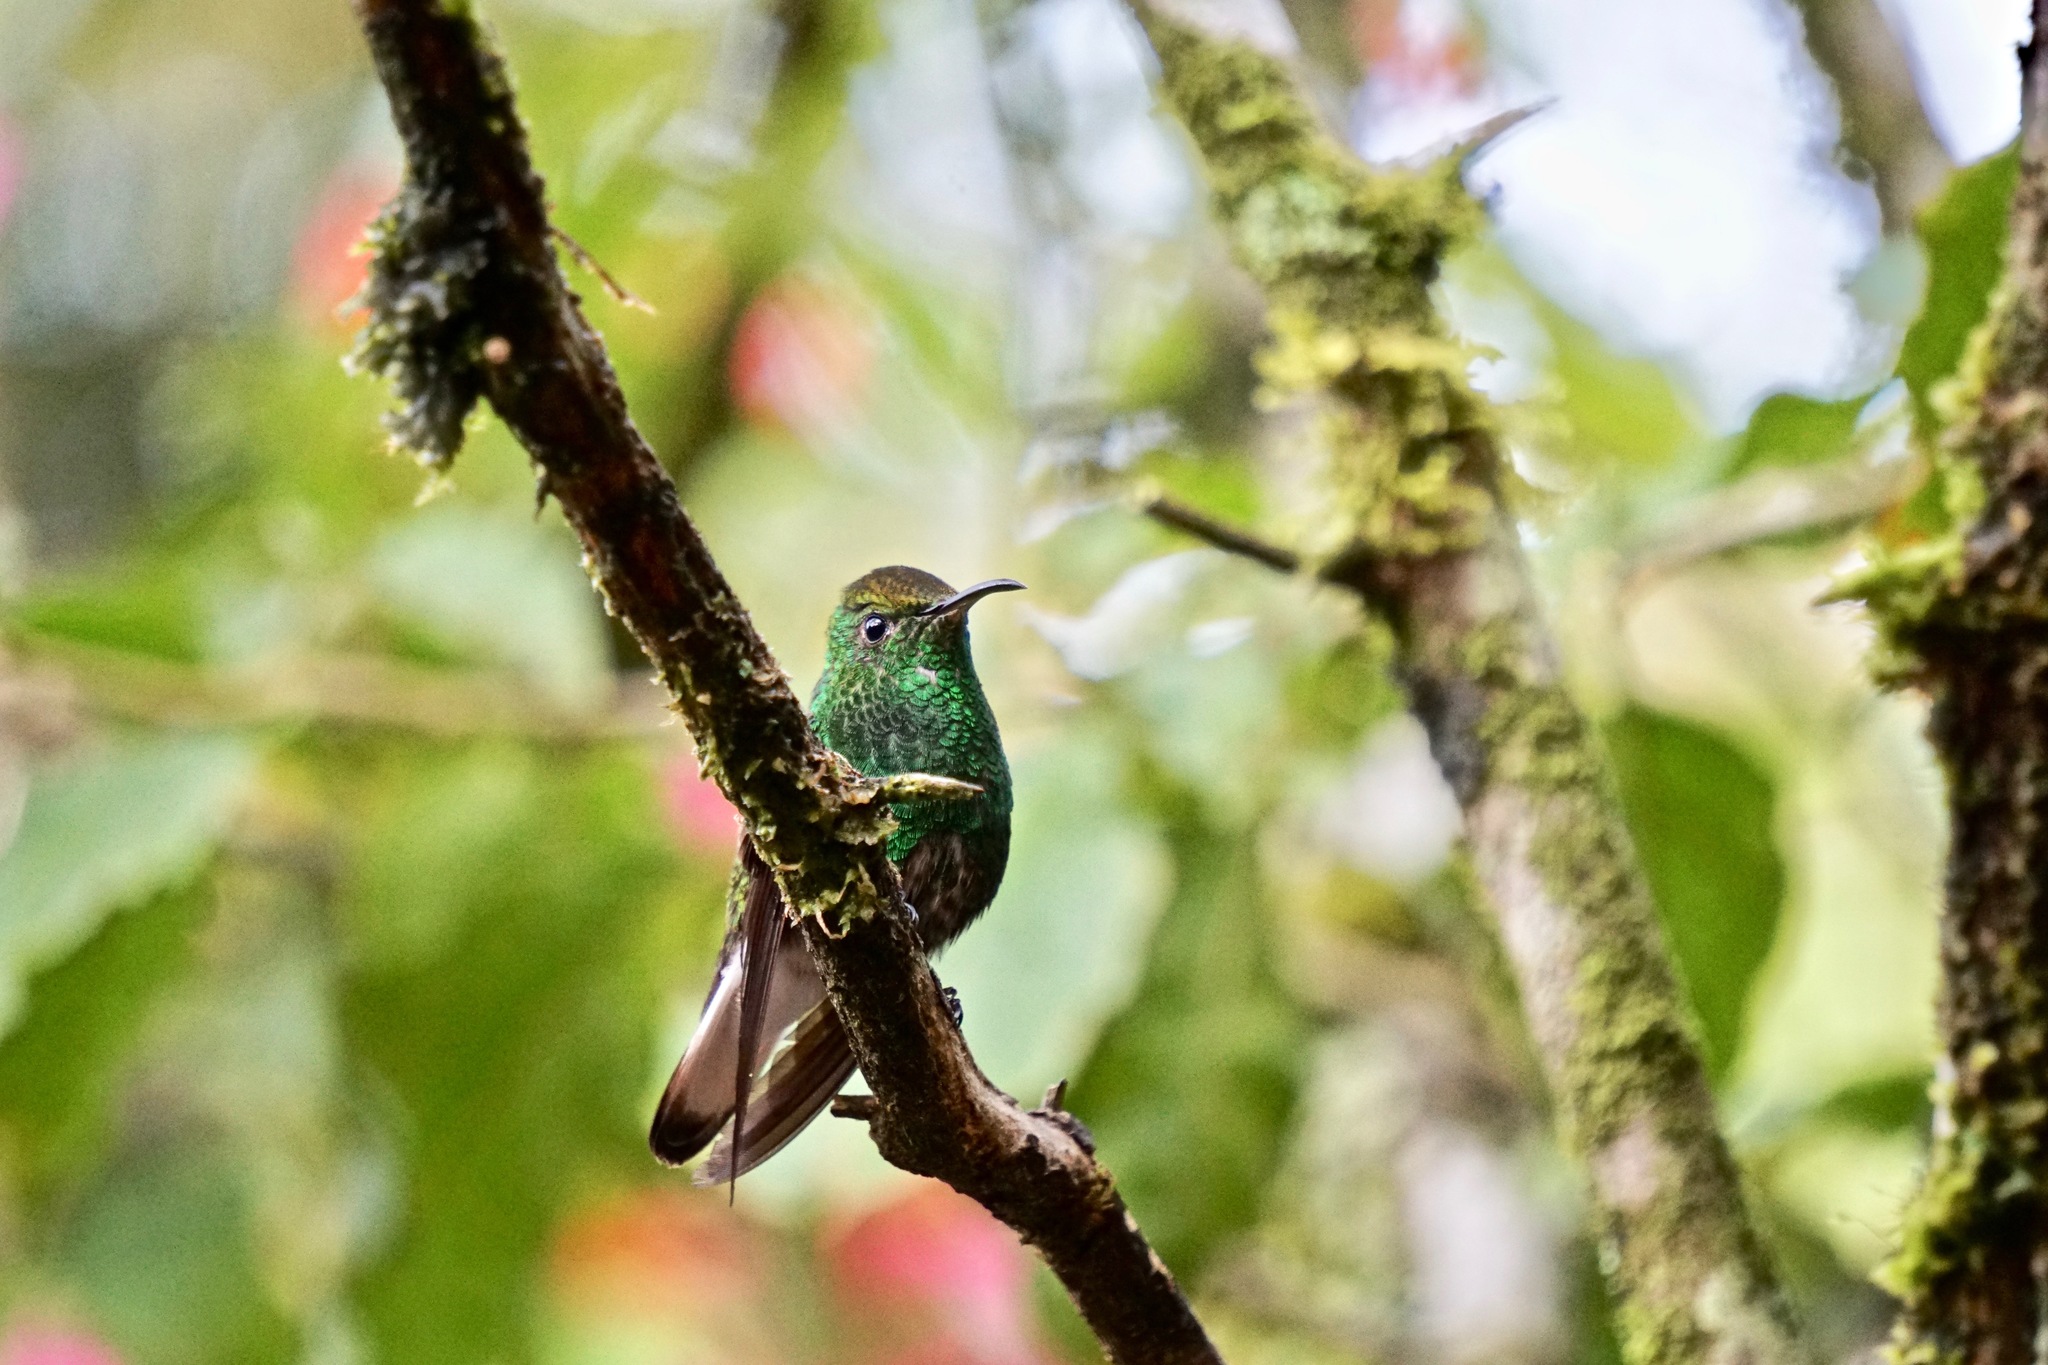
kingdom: Animalia
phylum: Chordata
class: Aves
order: Apodiformes
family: Trochilidae
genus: Microchera
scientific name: Microchera cupreiceps
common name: Coppery-headed emerald
